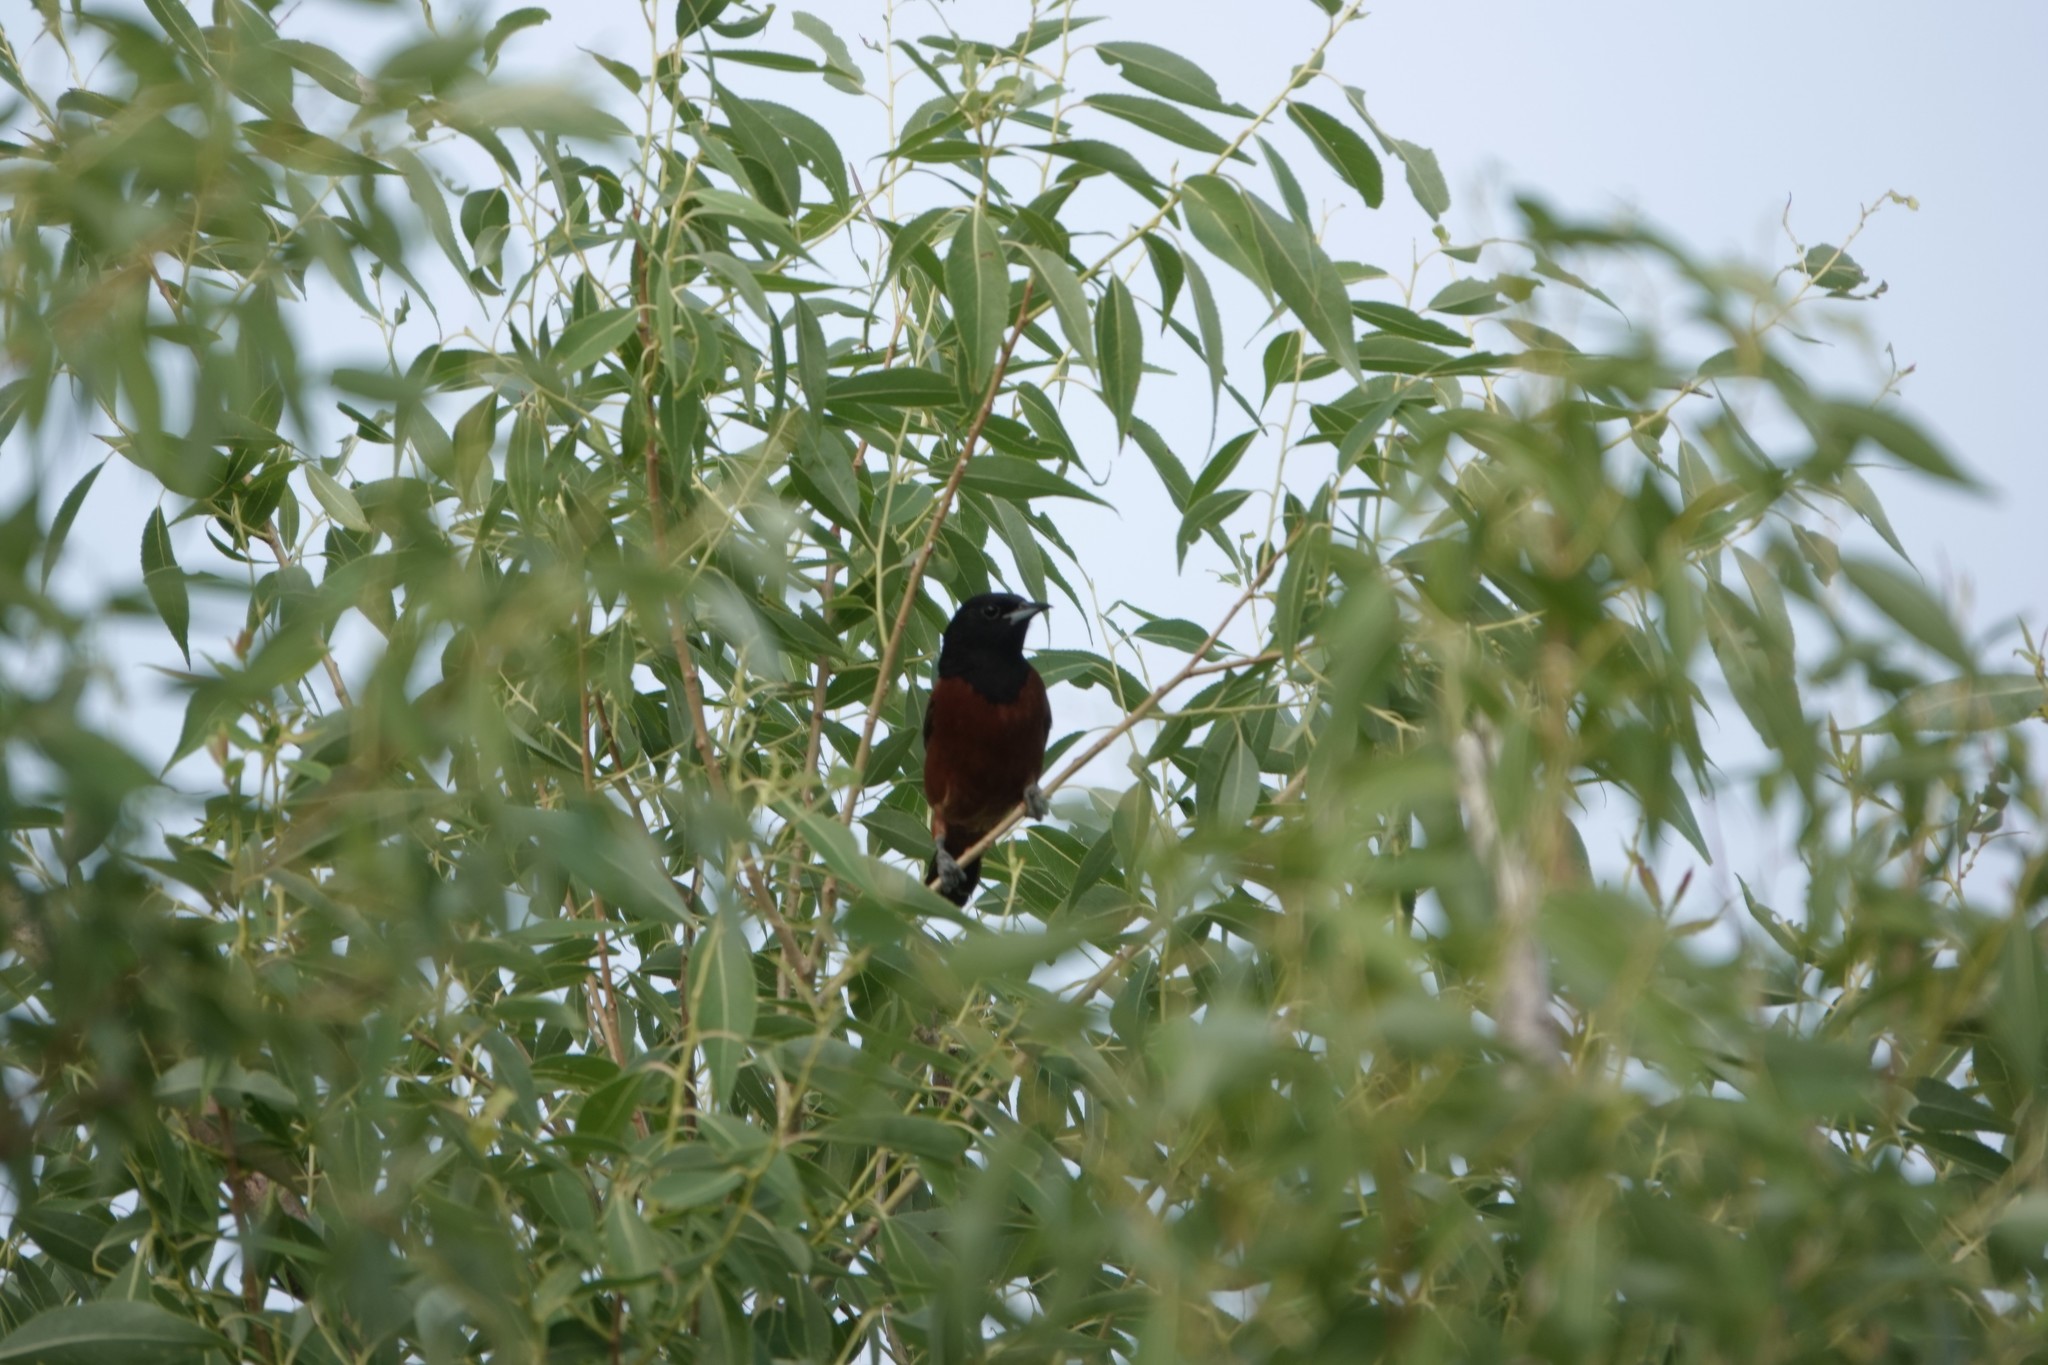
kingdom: Animalia
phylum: Chordata
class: Aves
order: Passeriformes
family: Icteridae
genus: Icterus
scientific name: Icterus spurius
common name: Orchard oriole
